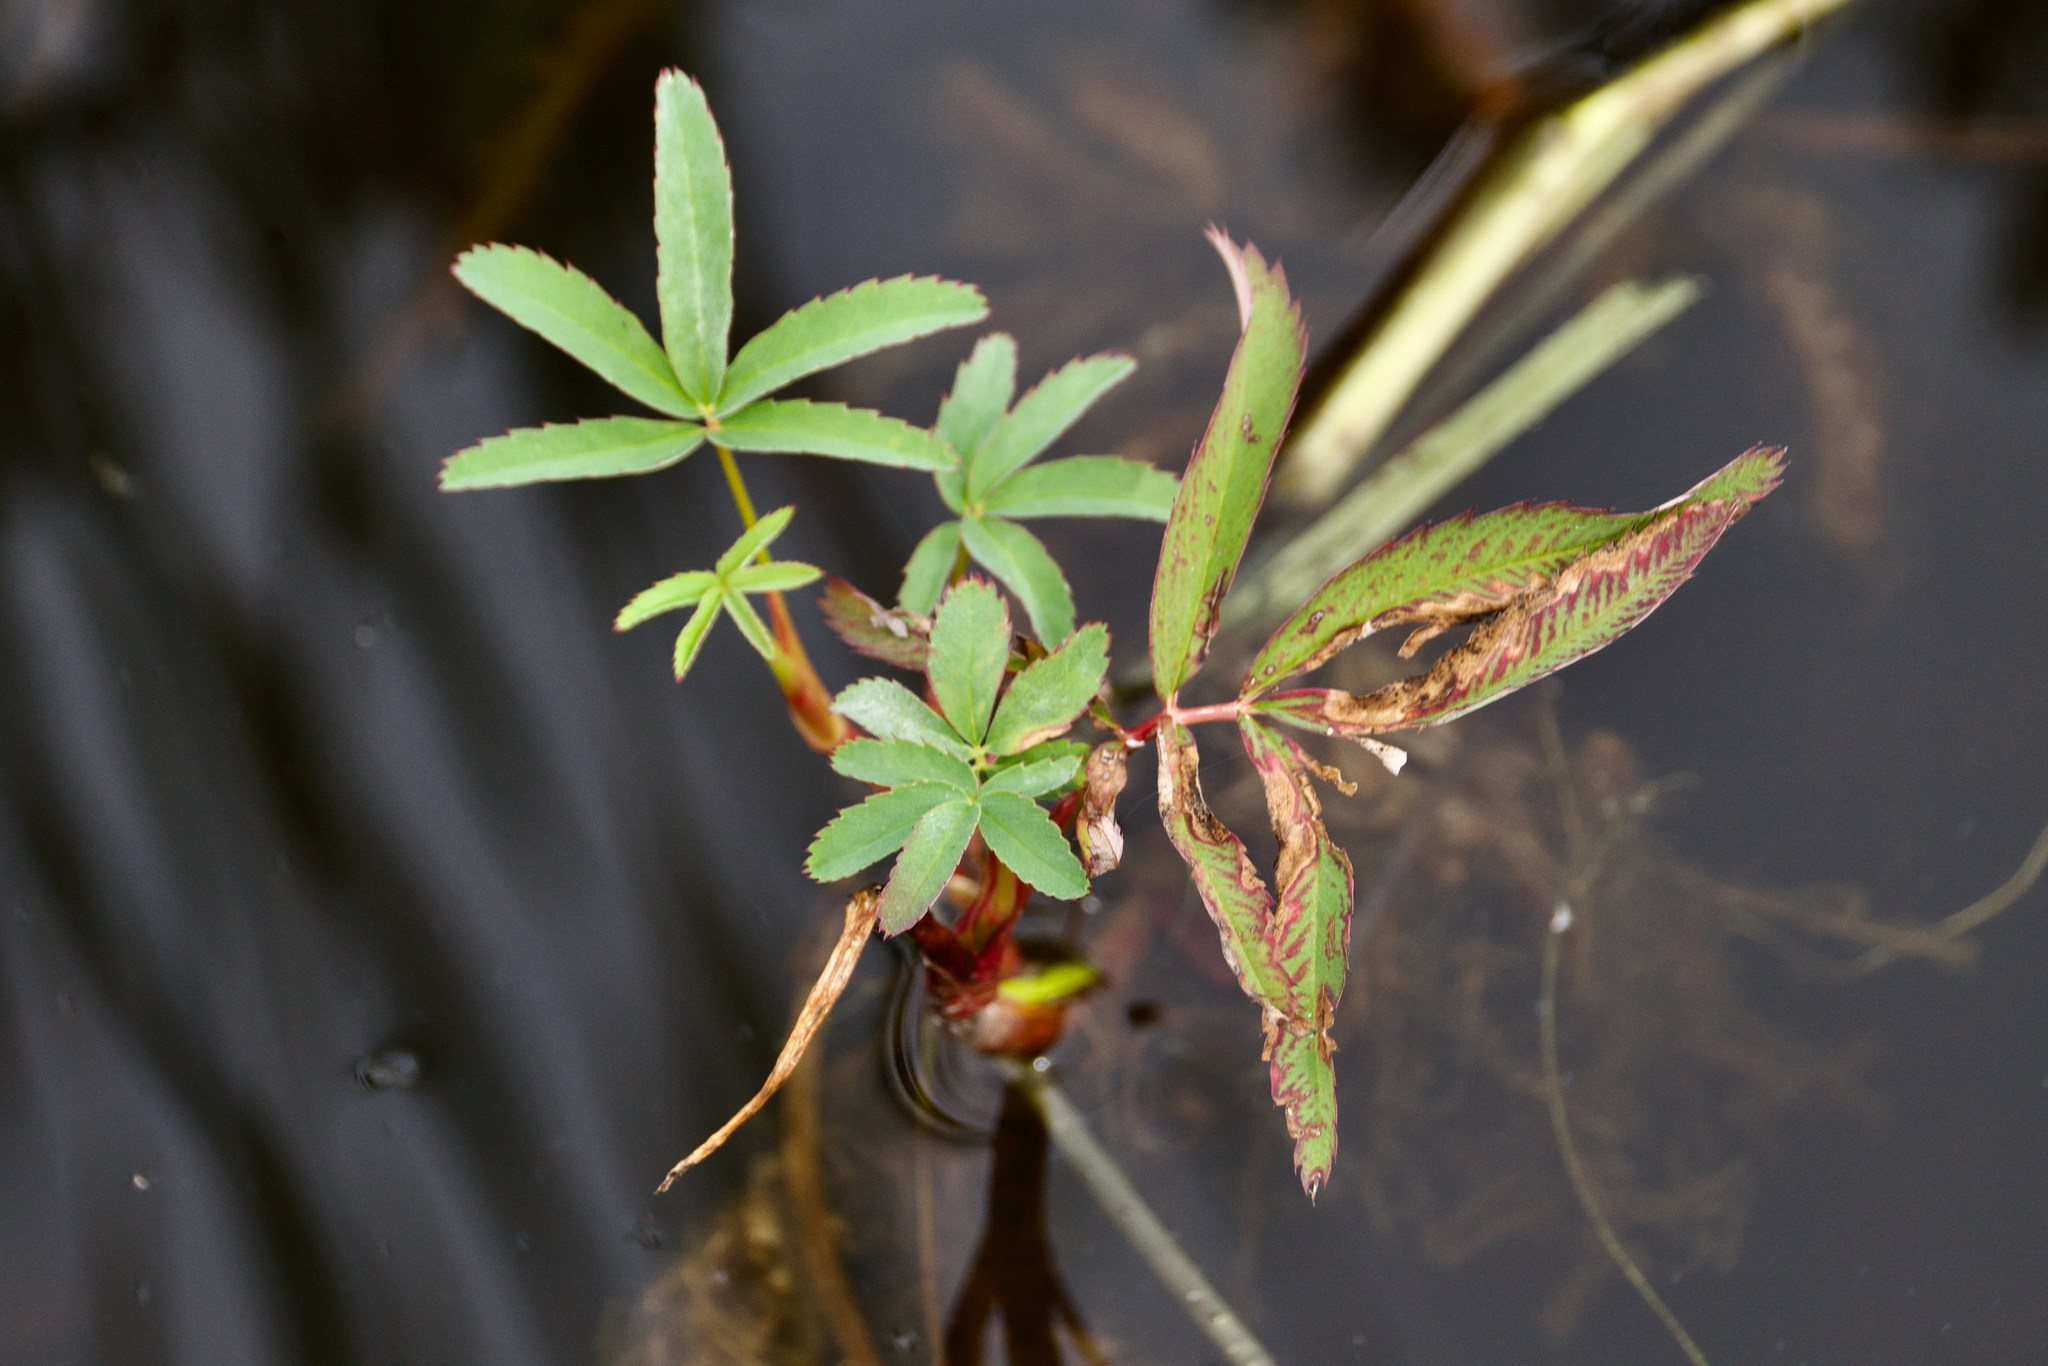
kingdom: Plantae
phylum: Tracheophyta
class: Magnoliopsida
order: Rosales
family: Rosaceae
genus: Comarum
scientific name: Comarum palustre
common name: Marsh cinquefoil
